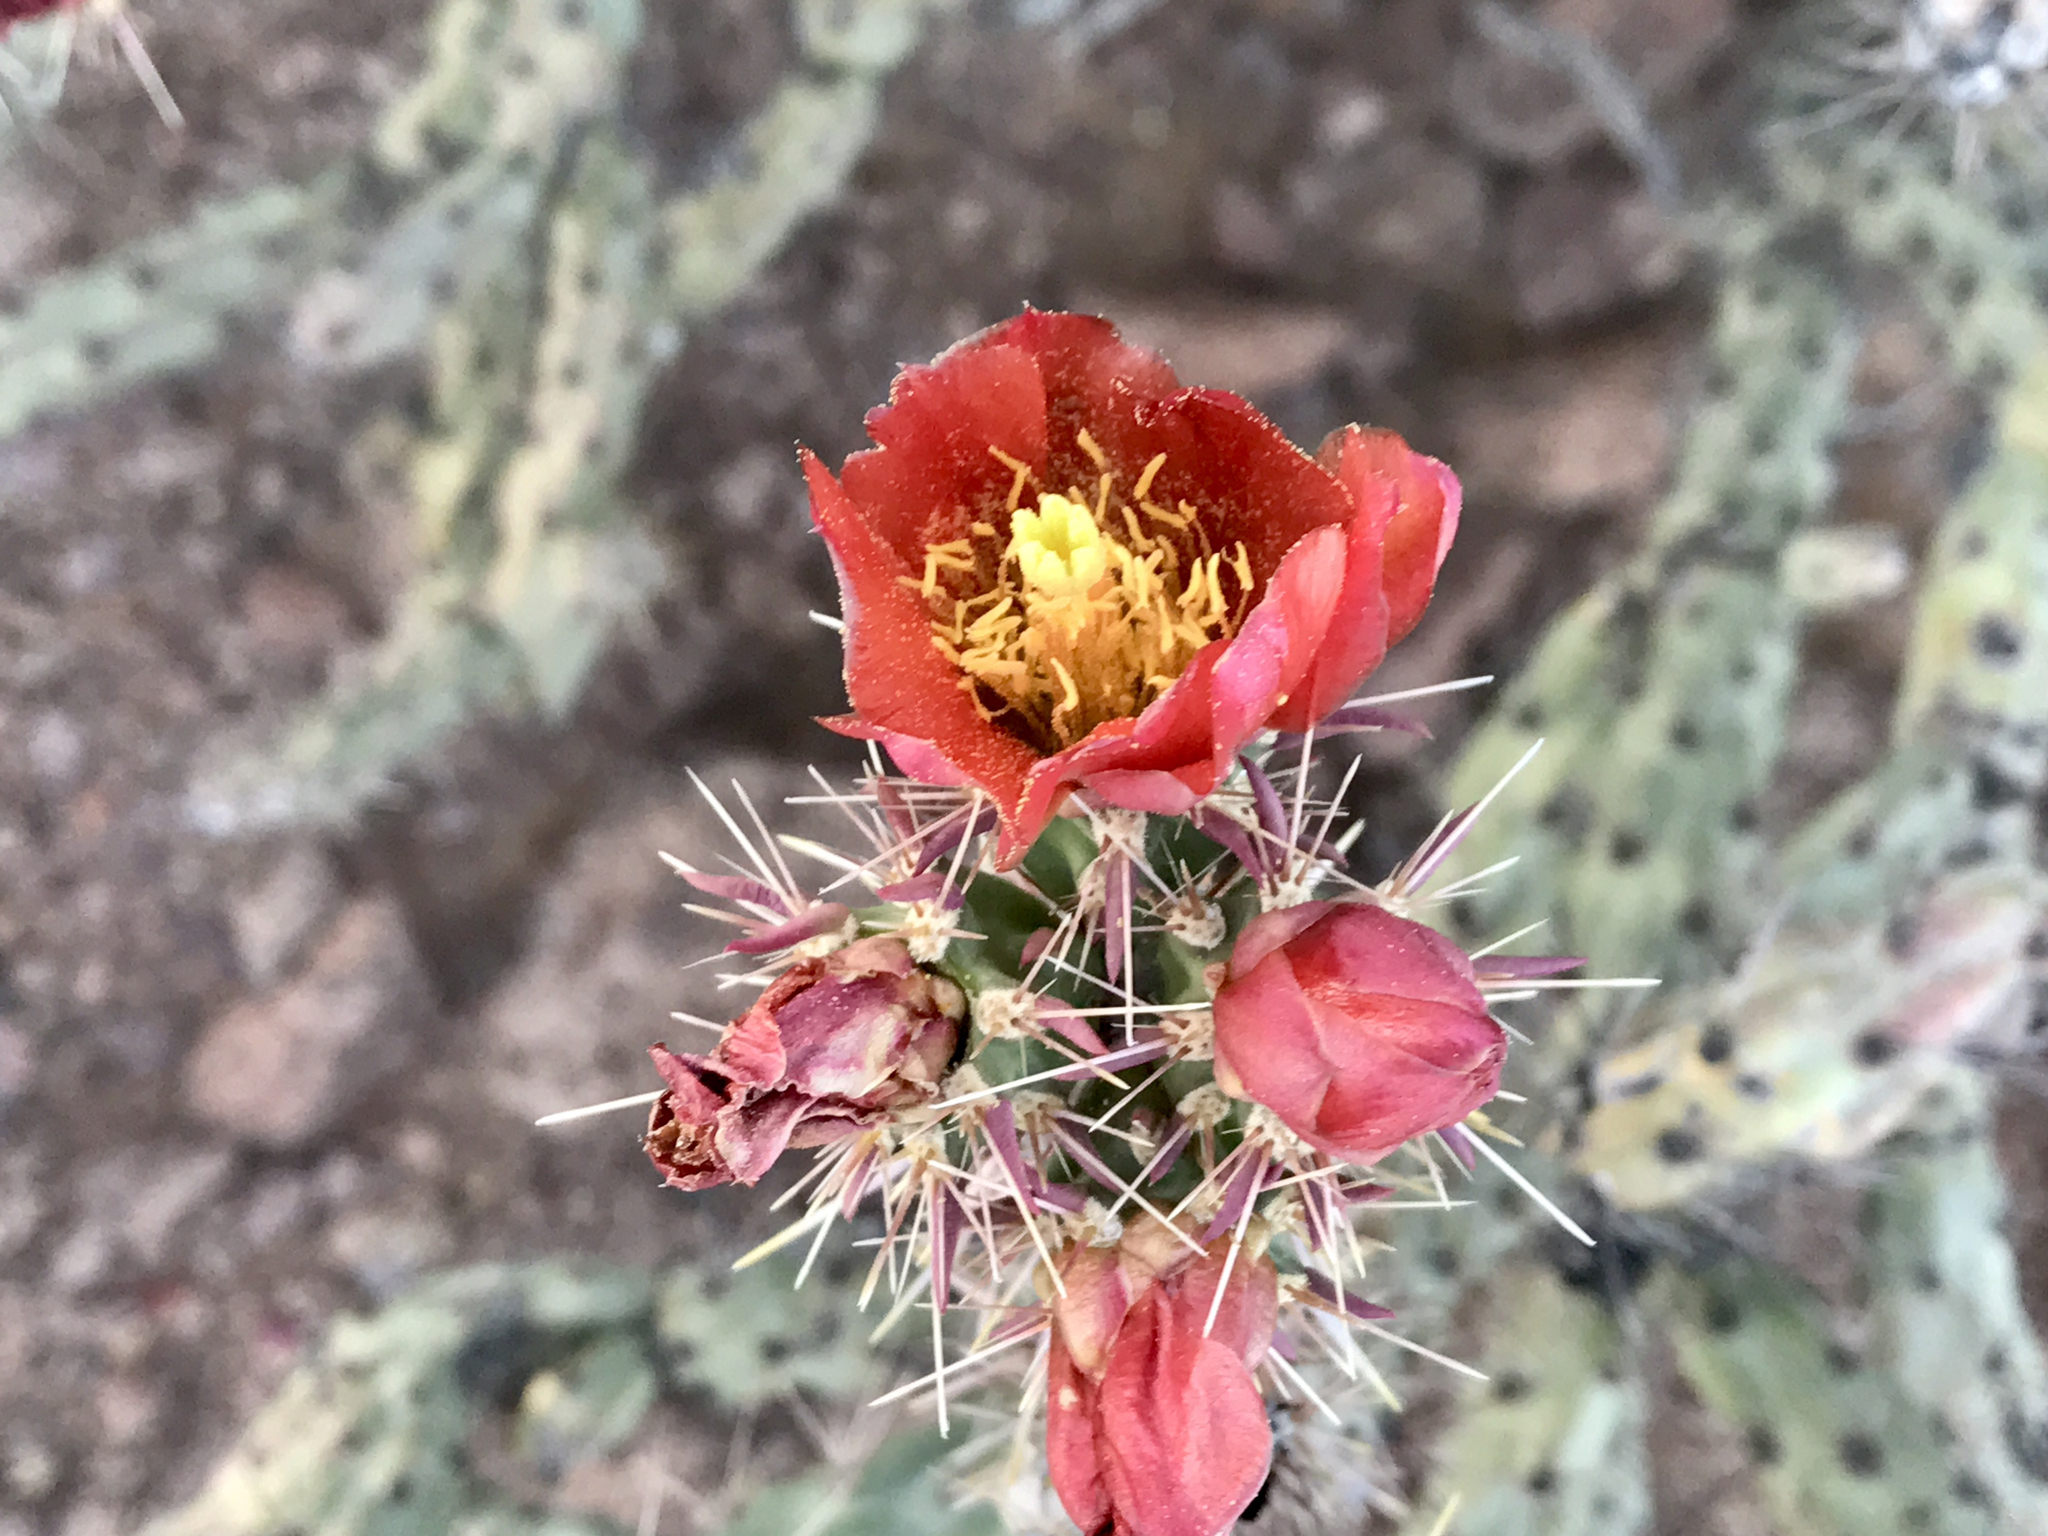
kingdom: Plantae
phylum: Tracheophyta
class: Magnoliopsida
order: Caryophyllales
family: Cactaceae
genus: Cylindropuntia
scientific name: Cylindropuntia acanthocarpa
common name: Buckhorn cholla
